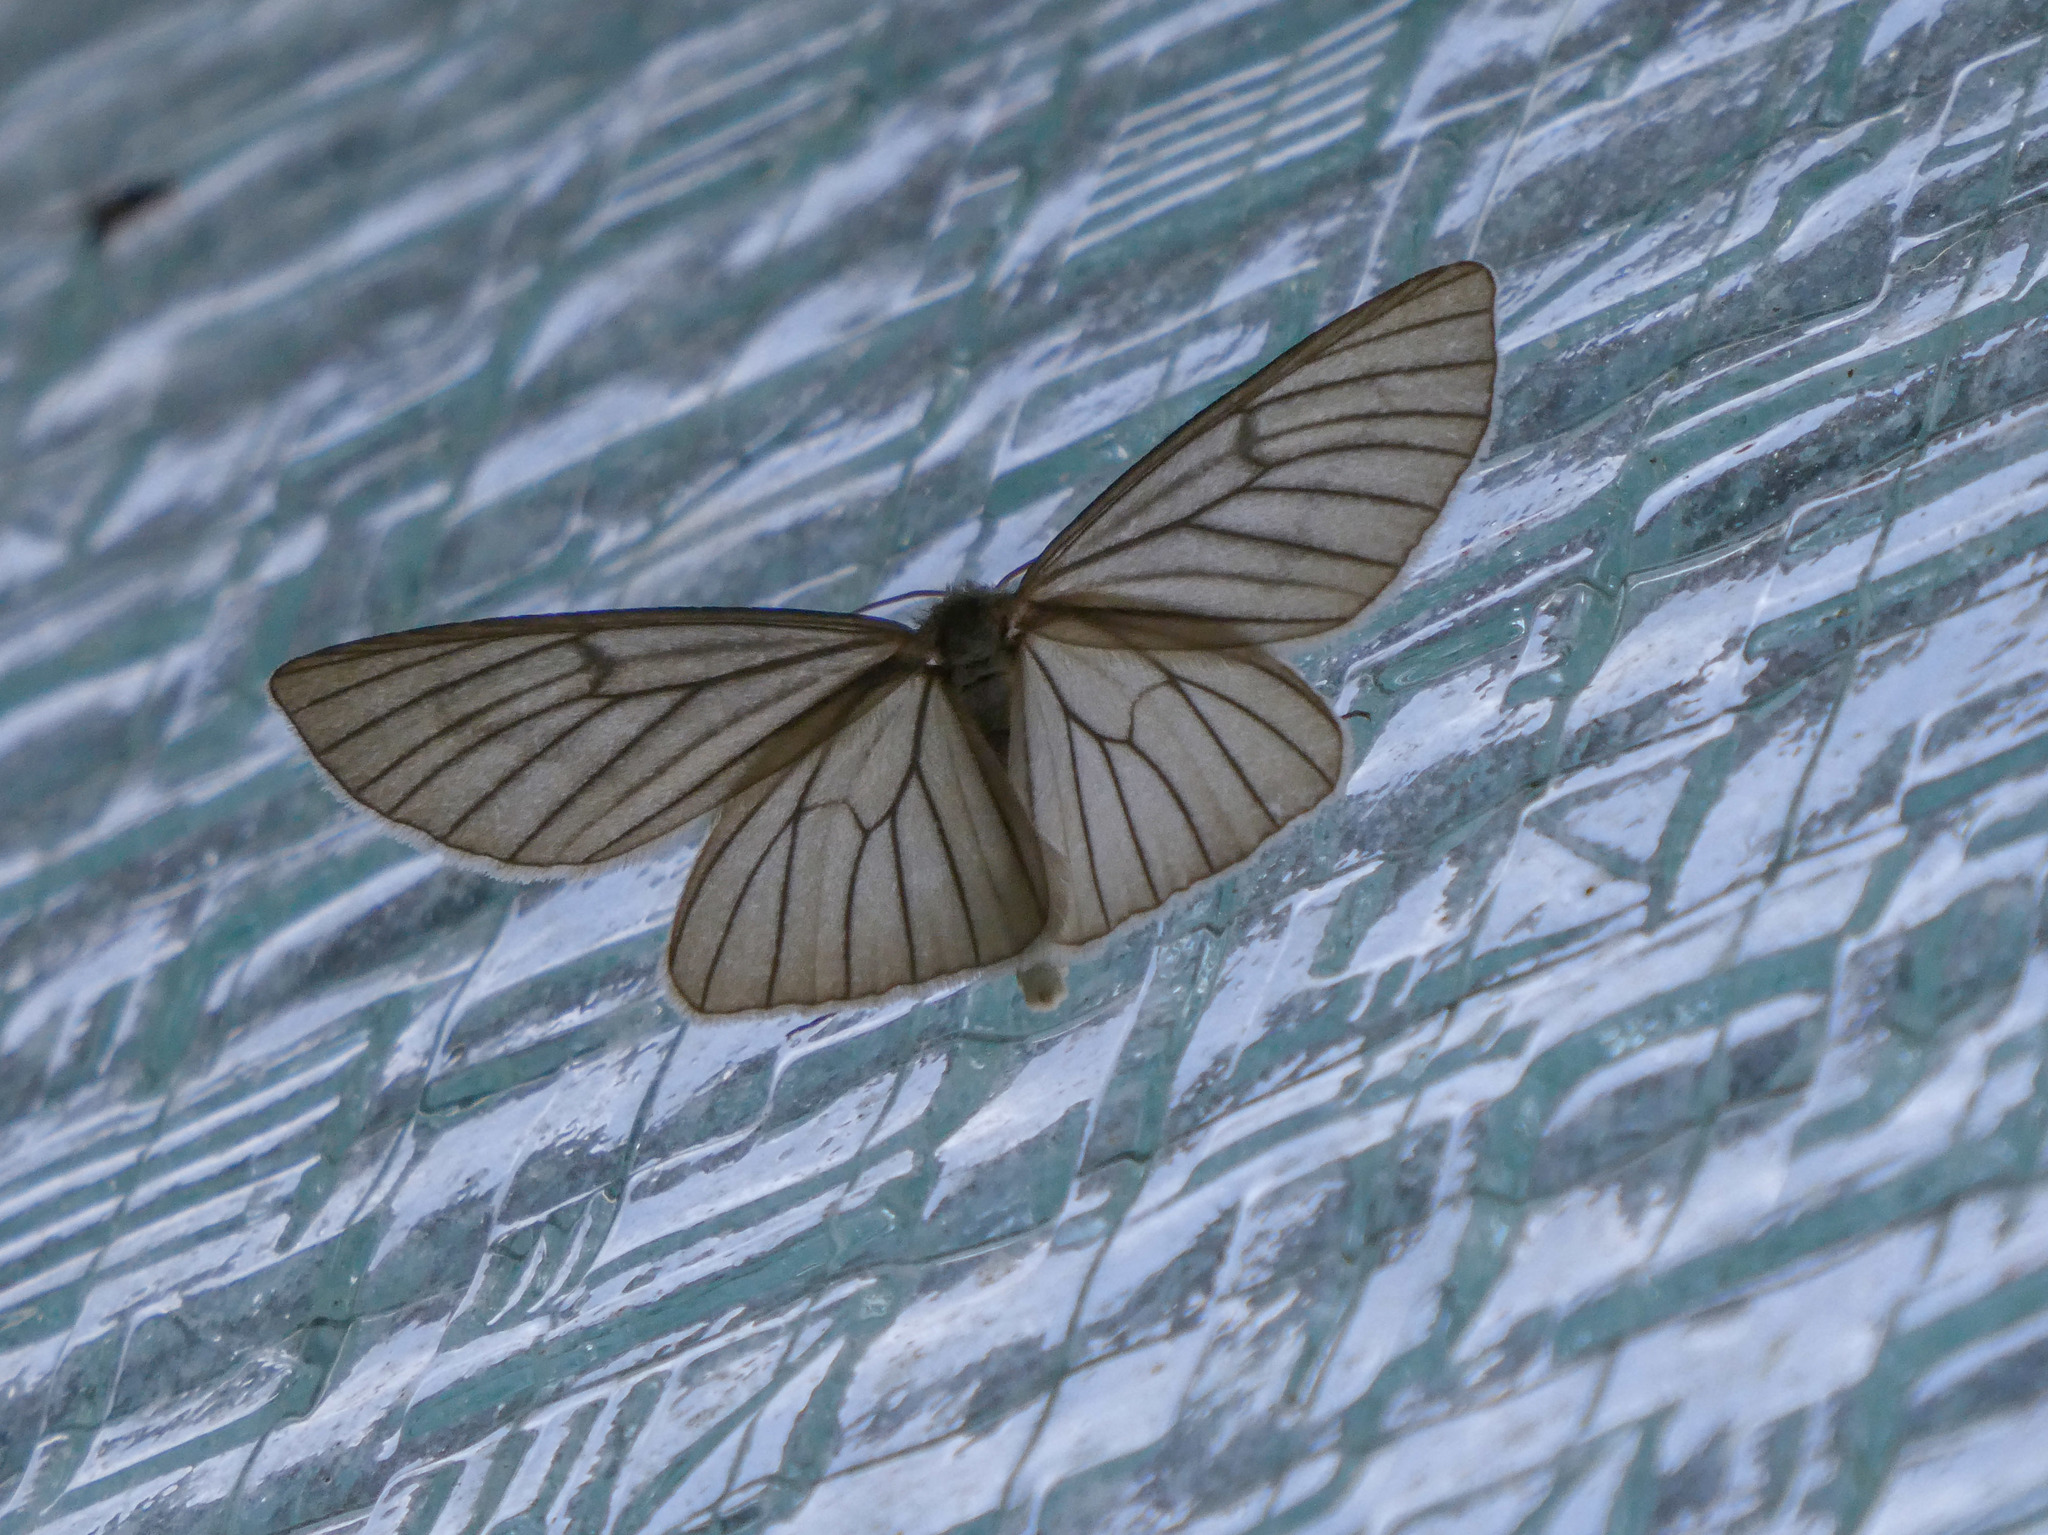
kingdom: Animalia
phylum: Arthropoda
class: Insecta
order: Lepidoptera
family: Geometridae
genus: Siona
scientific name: Siona lineata
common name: Black-veined moth
